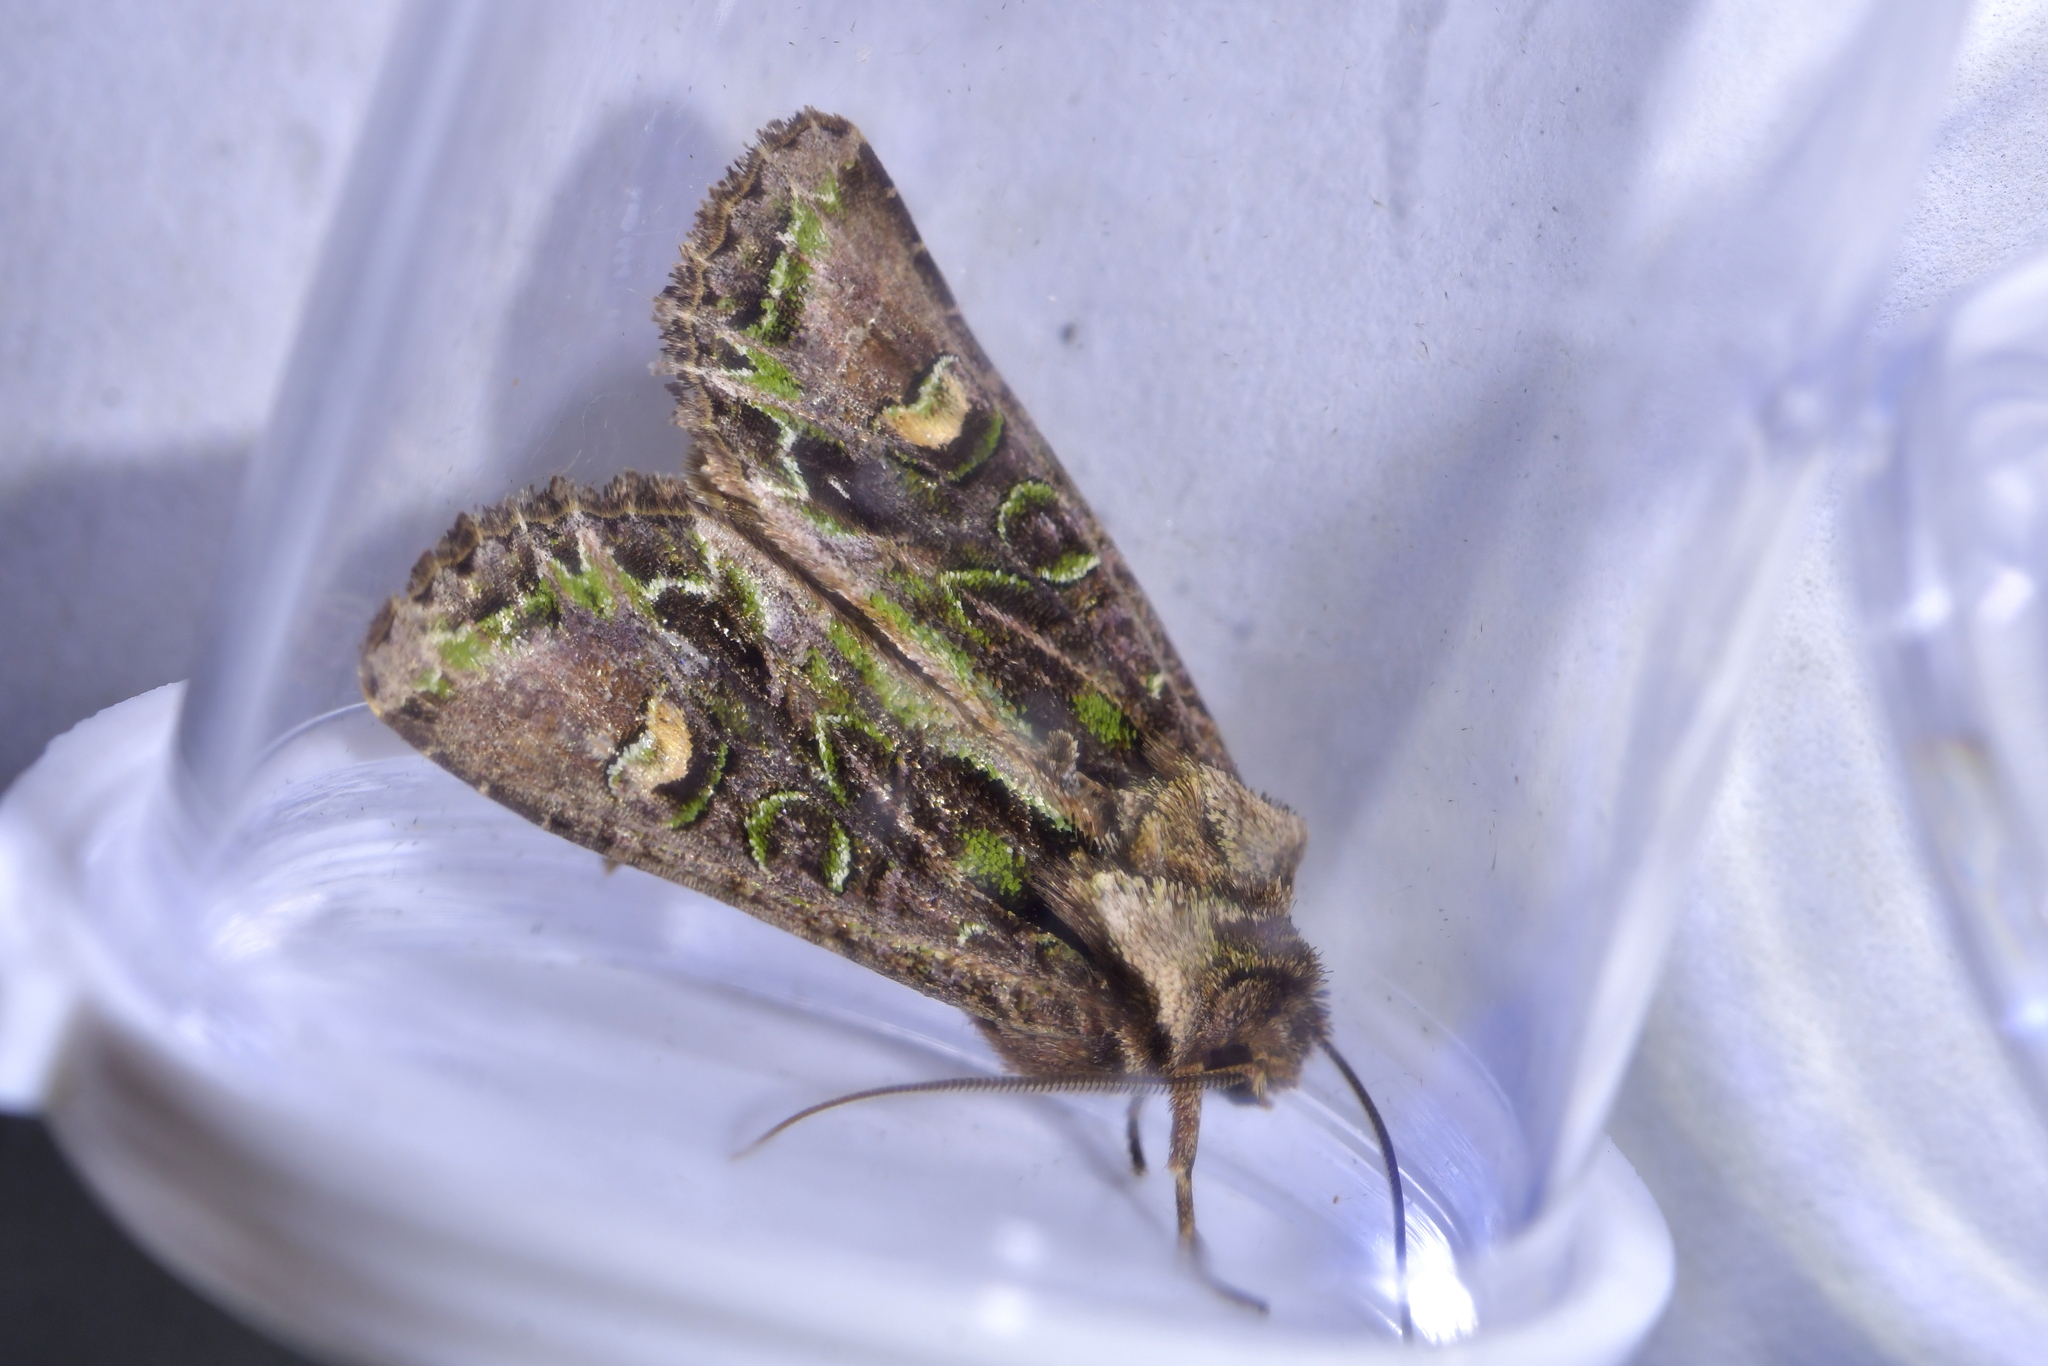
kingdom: Animalia
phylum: Arthropoda
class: Insecta
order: Lepidoptera
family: Noctuidae
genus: Ichneutica
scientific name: Ichneutica insignis
